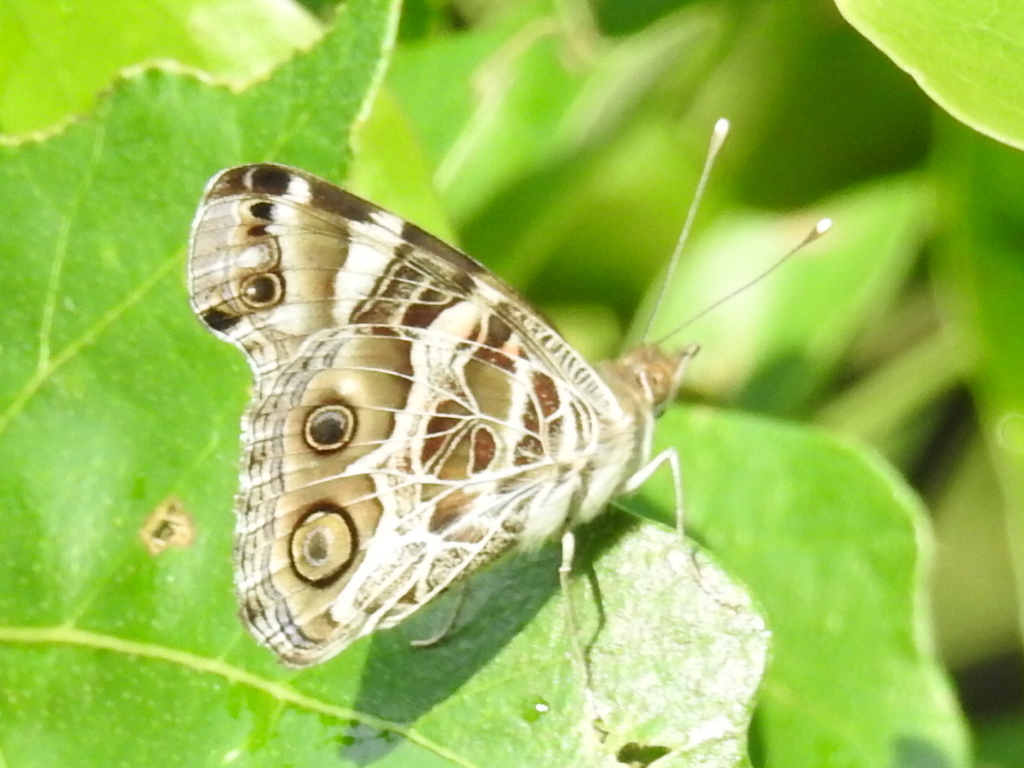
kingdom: Animalia
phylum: Arthropoda
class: Insecta
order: Lepidoptera
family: Nymphalidae
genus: Vanessa
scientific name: Vanessa virginiensis
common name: American lady
